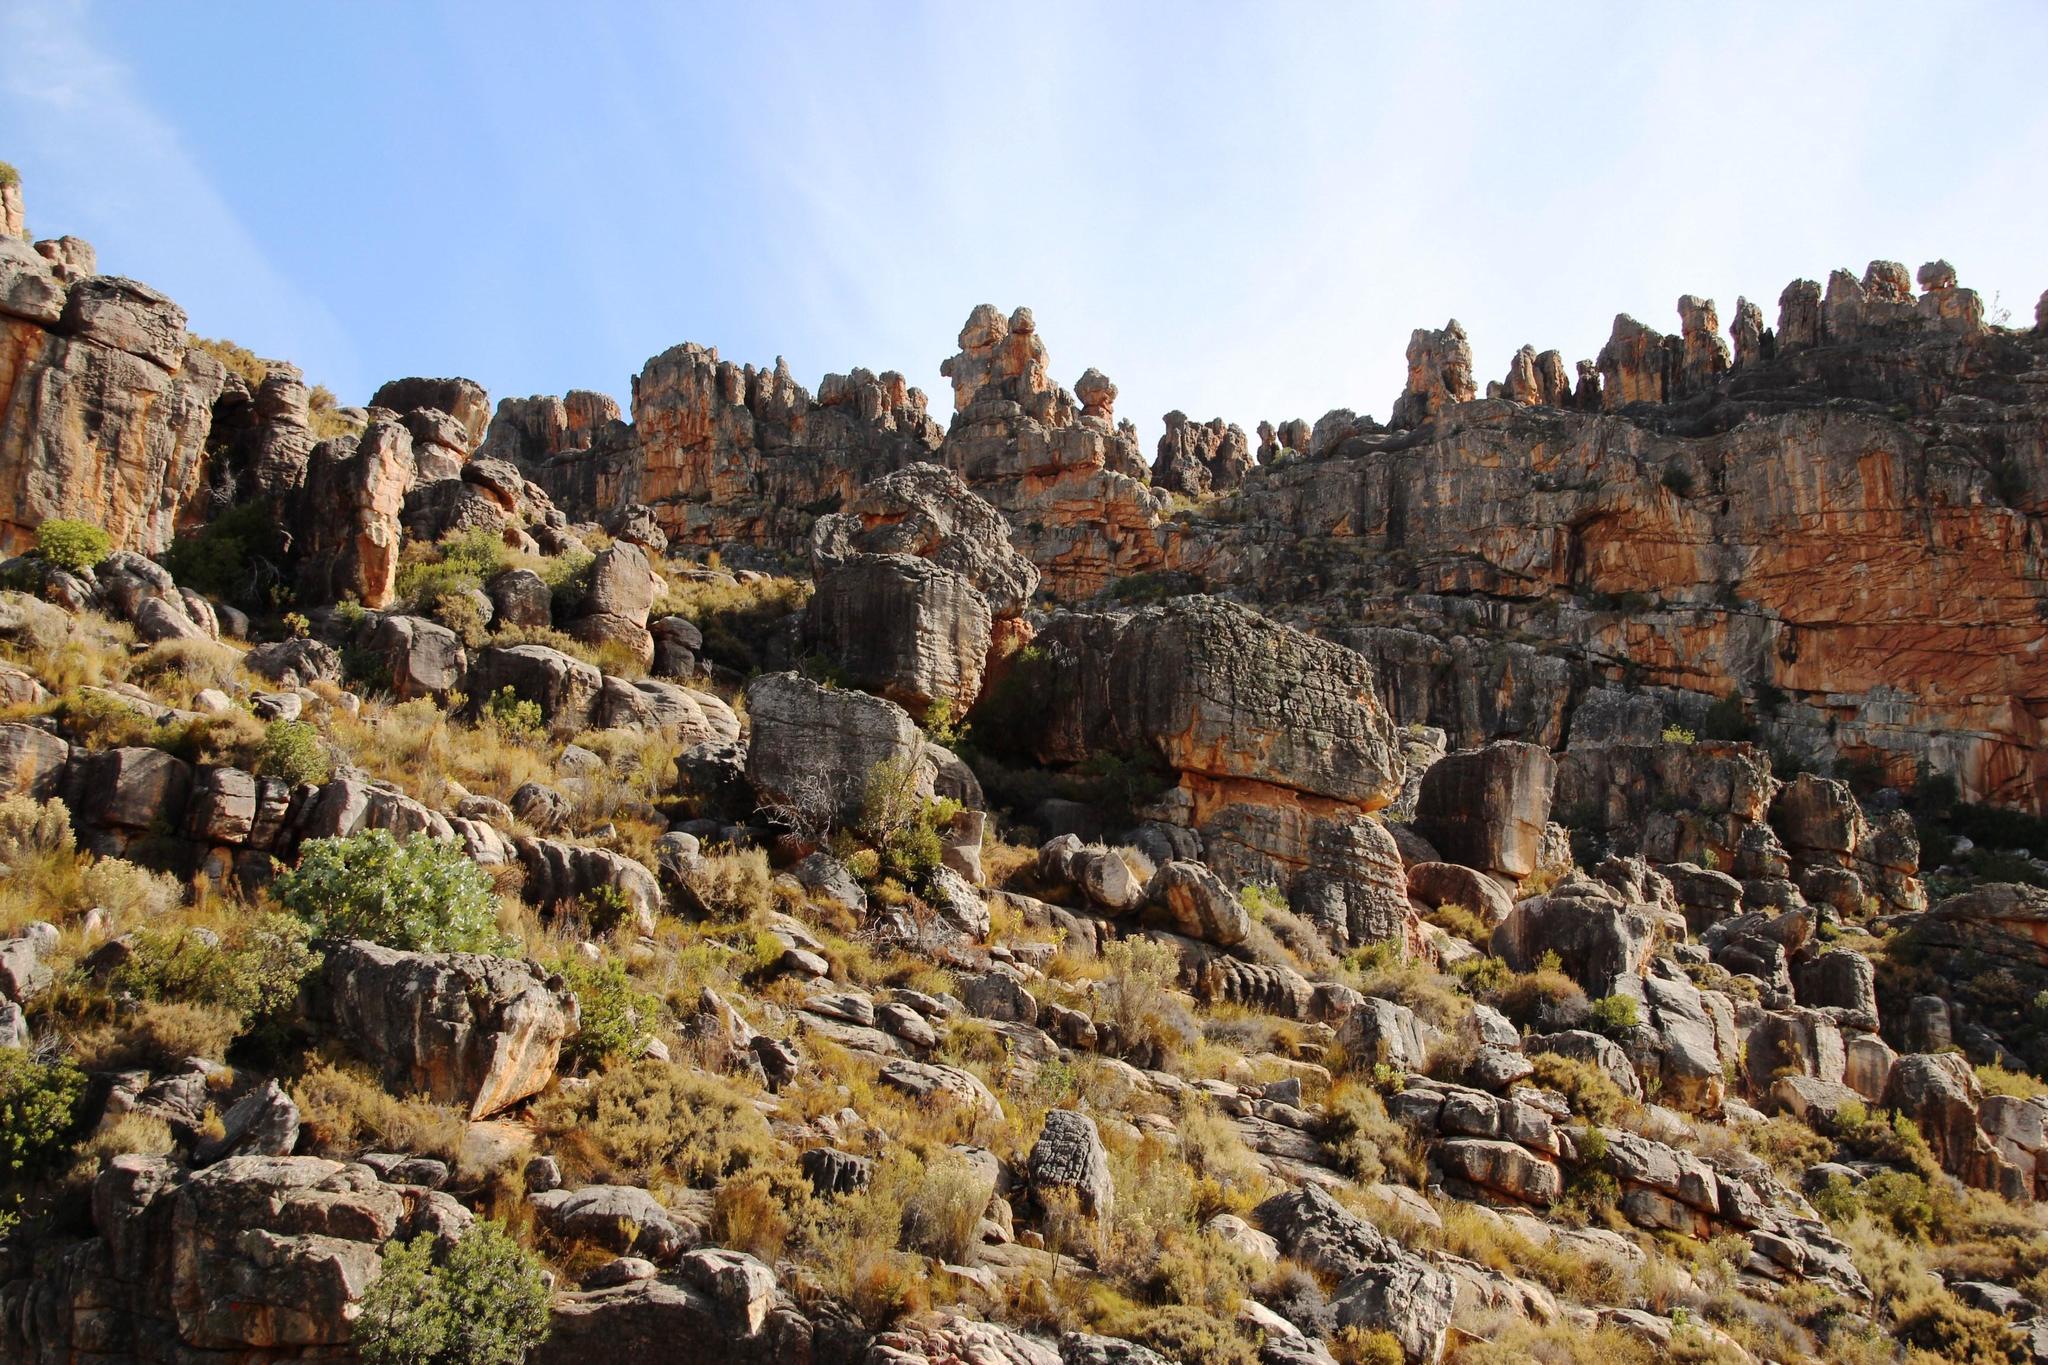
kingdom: Plantae
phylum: Tracheophyta
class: Magnoliopsida
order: Proteales
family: Proteaceae
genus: Protea
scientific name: Protea nitida
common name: Tree protea
